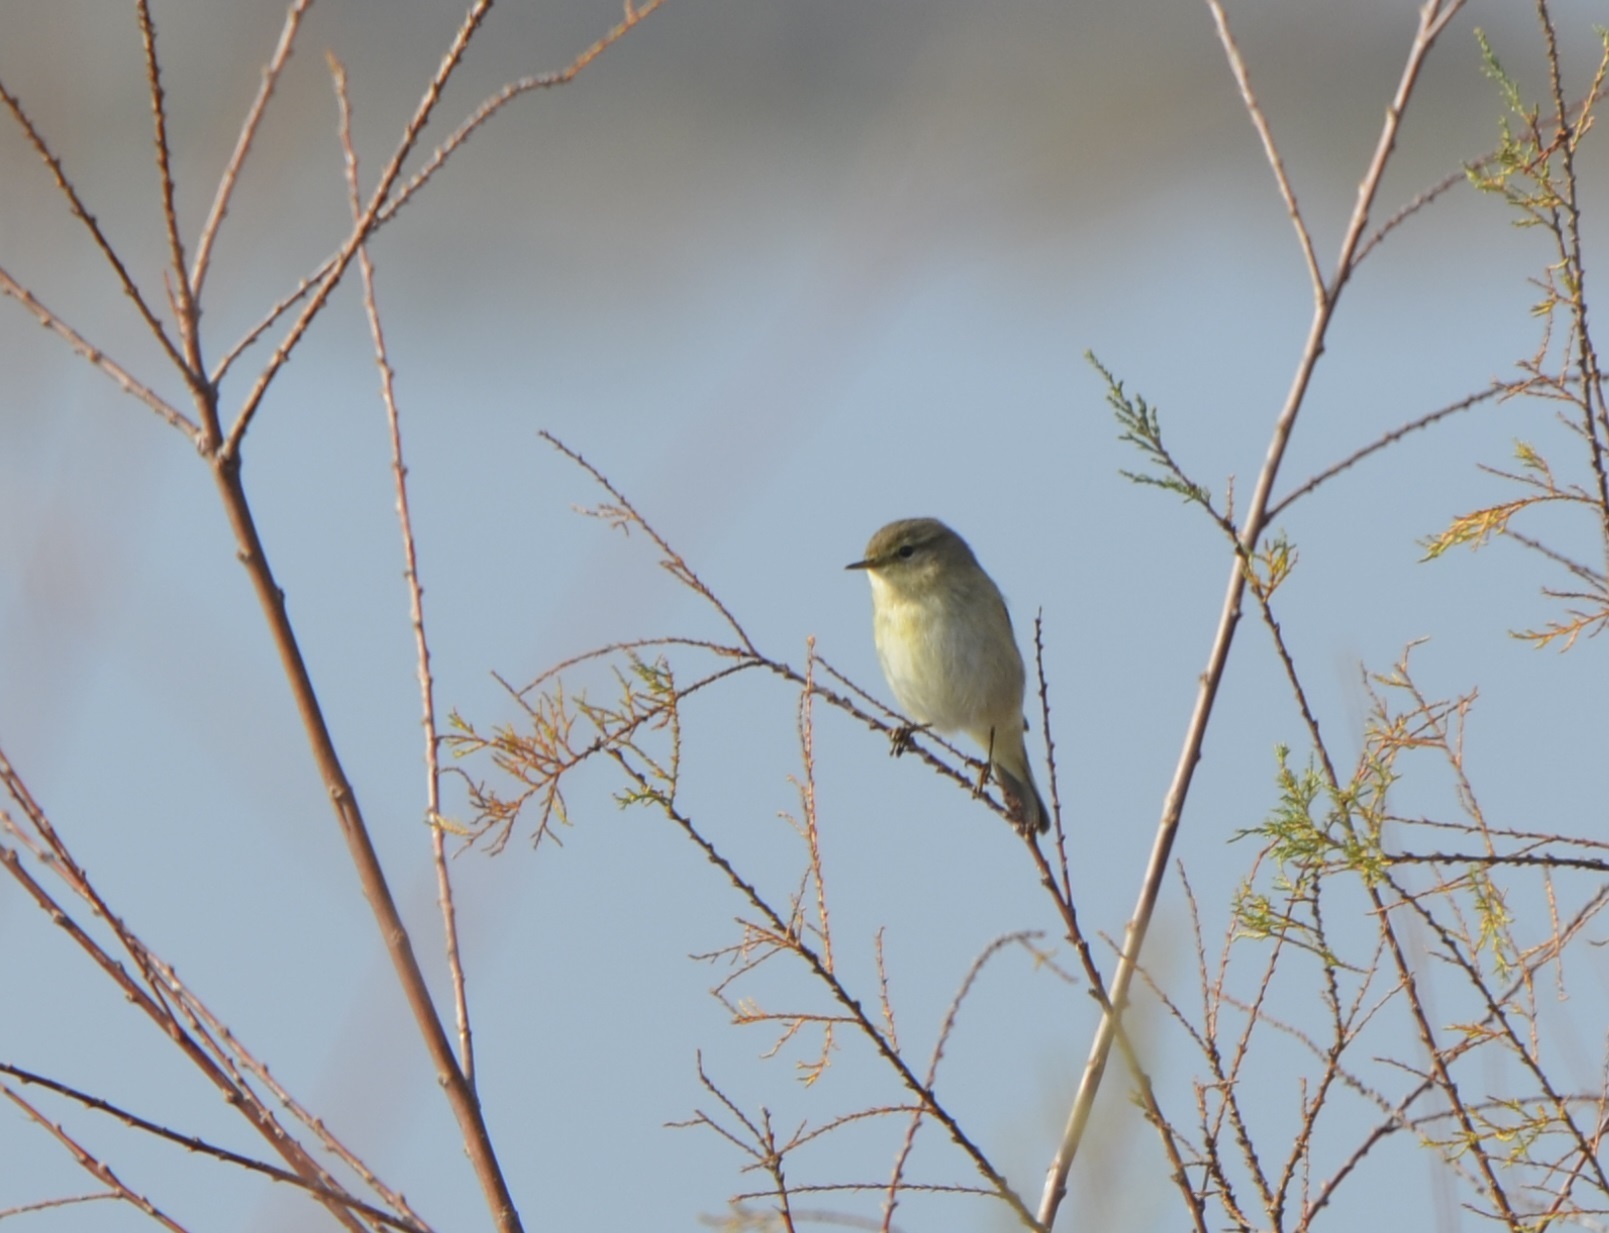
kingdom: Animalia
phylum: Chordata
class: Aves
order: Passeriformes
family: Phylloscopidae
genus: Phylloscopus
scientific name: Phylloscopus trochilus
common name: Willow warbler
